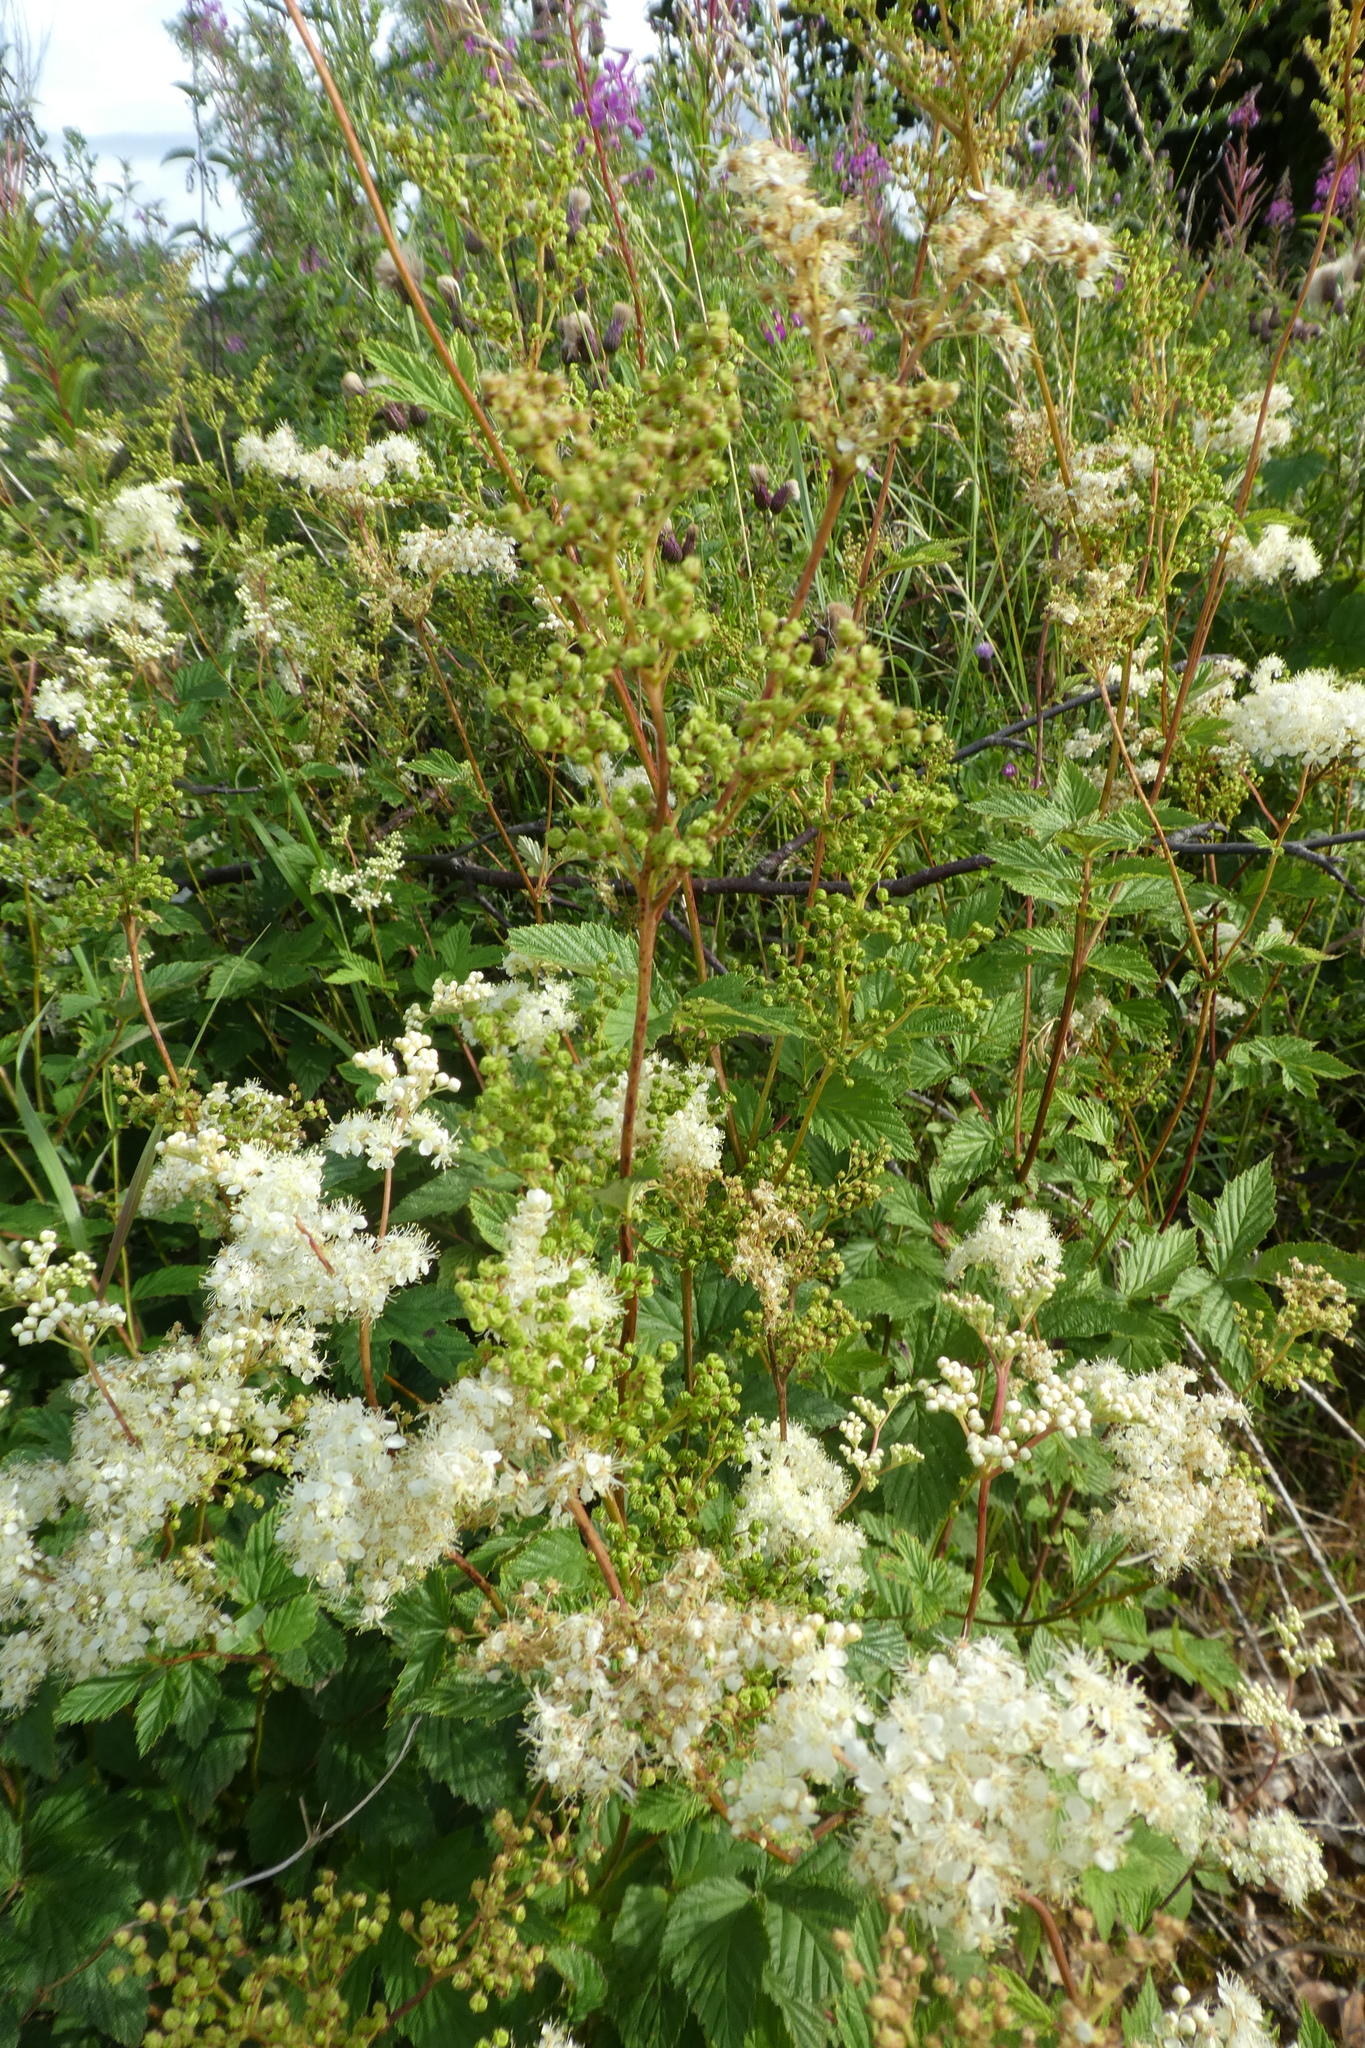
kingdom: Plantae
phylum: Tracheophyta
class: Magnoliopsida
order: Rosales
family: Rosaceae
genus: Filipendula
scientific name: Filipendula ulmaria
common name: Meadowsweet
